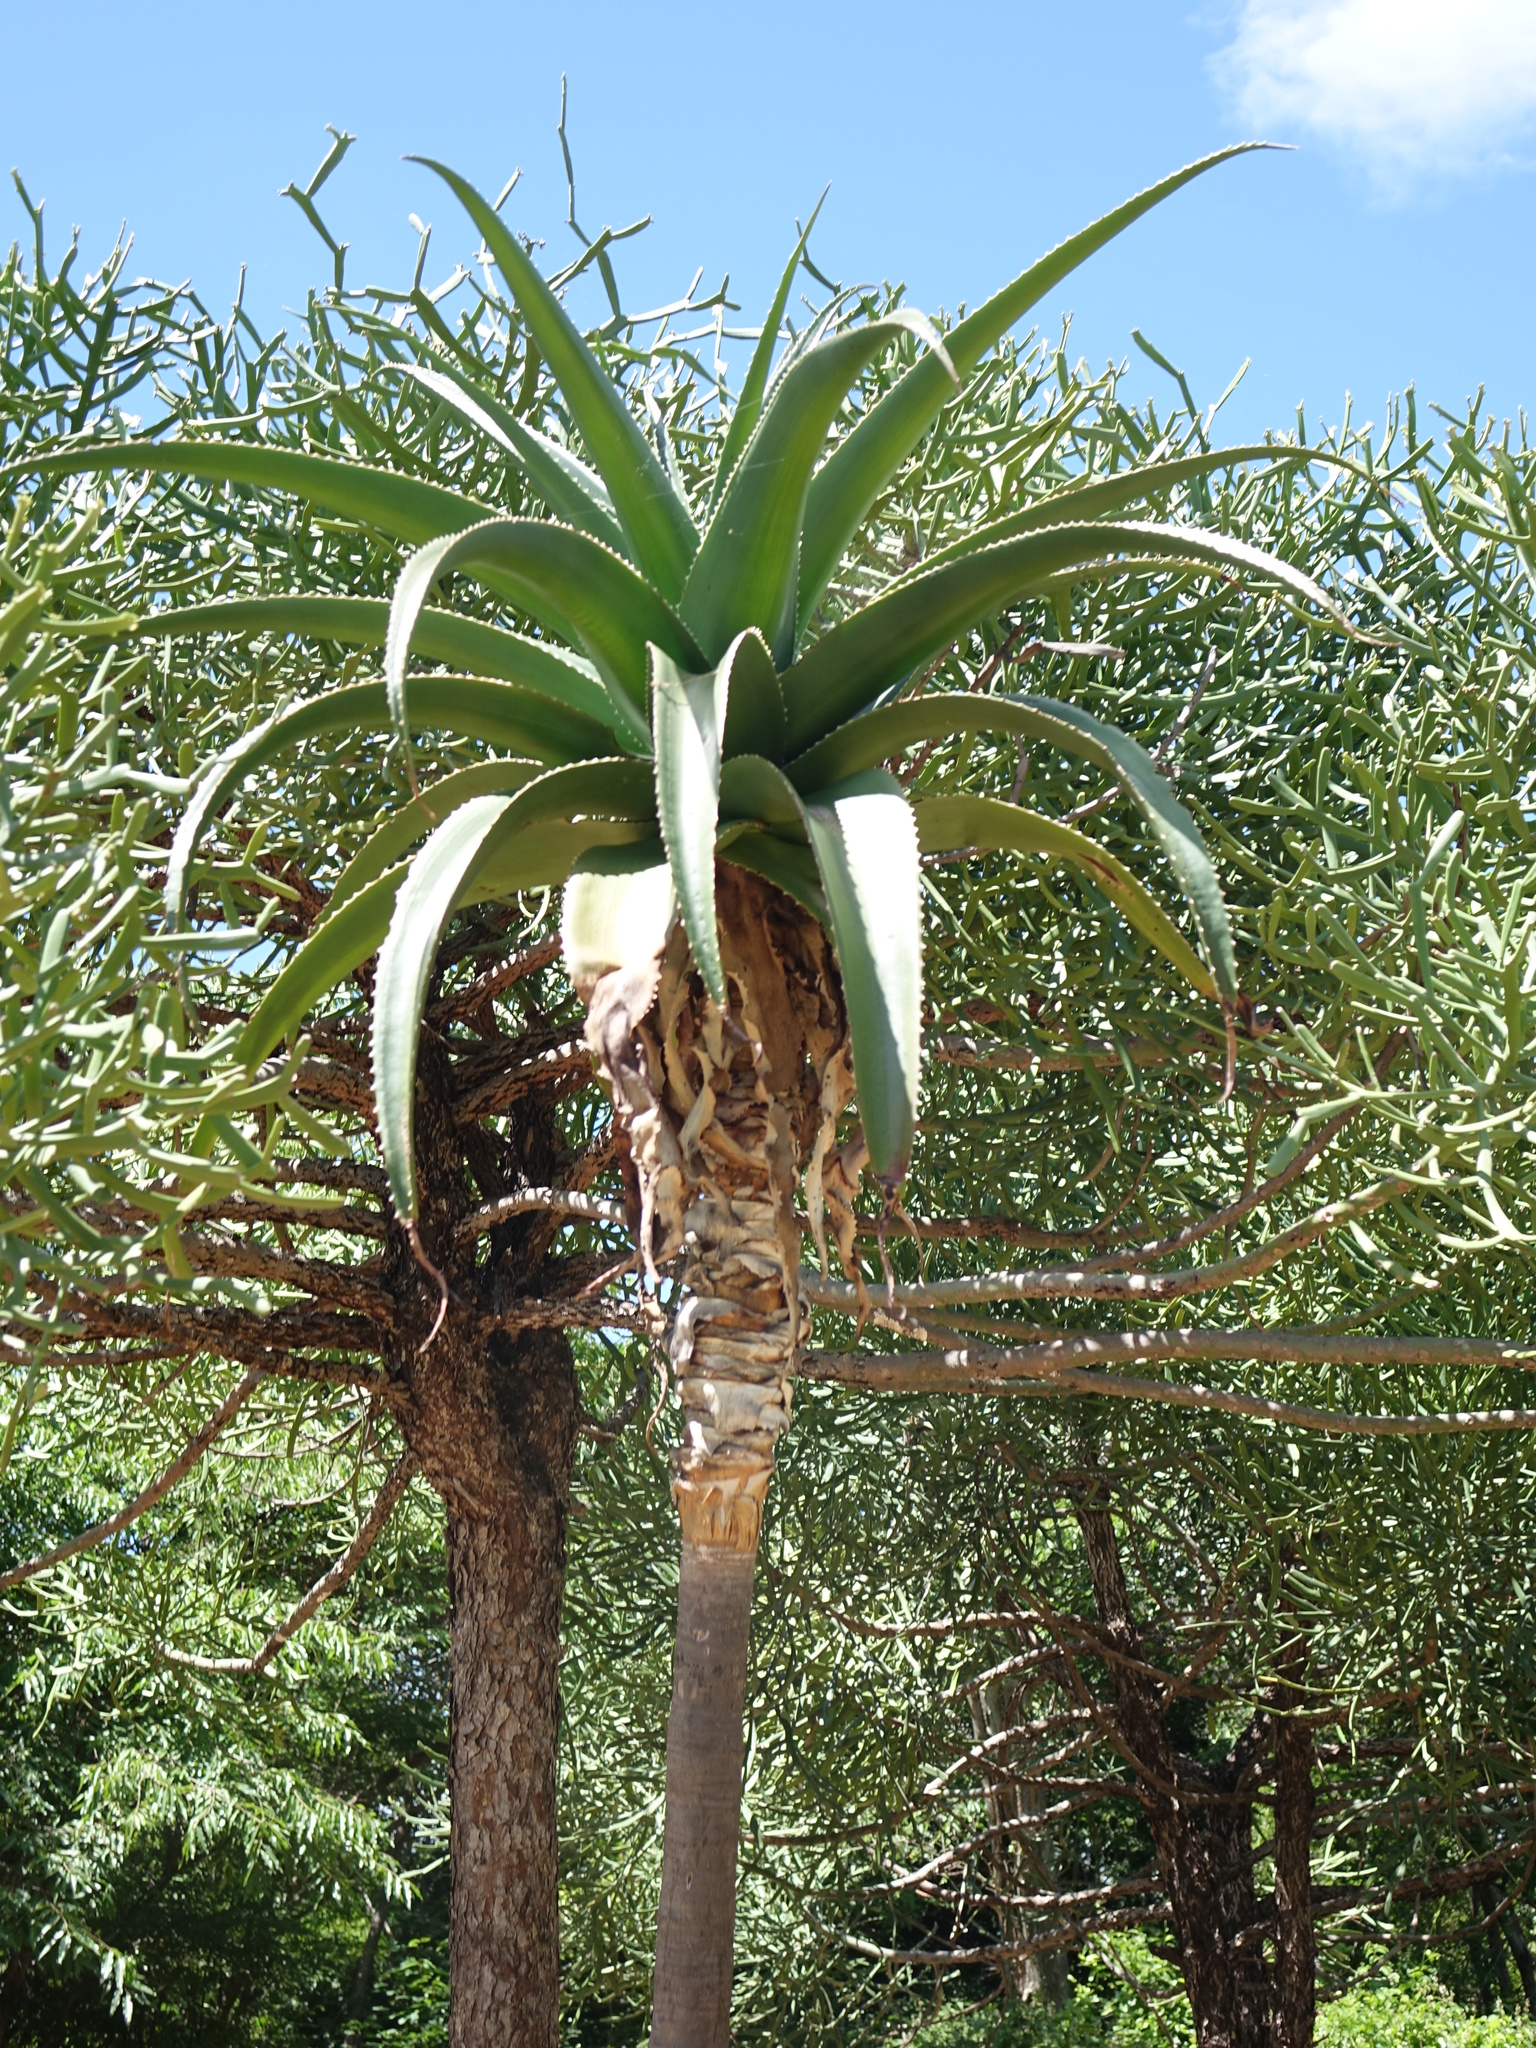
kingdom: Plantae
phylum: Tracheophyta
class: Liliopsida
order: Asparagales
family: Asphodelaceae
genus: Aloe
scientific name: Aloe vaombe
